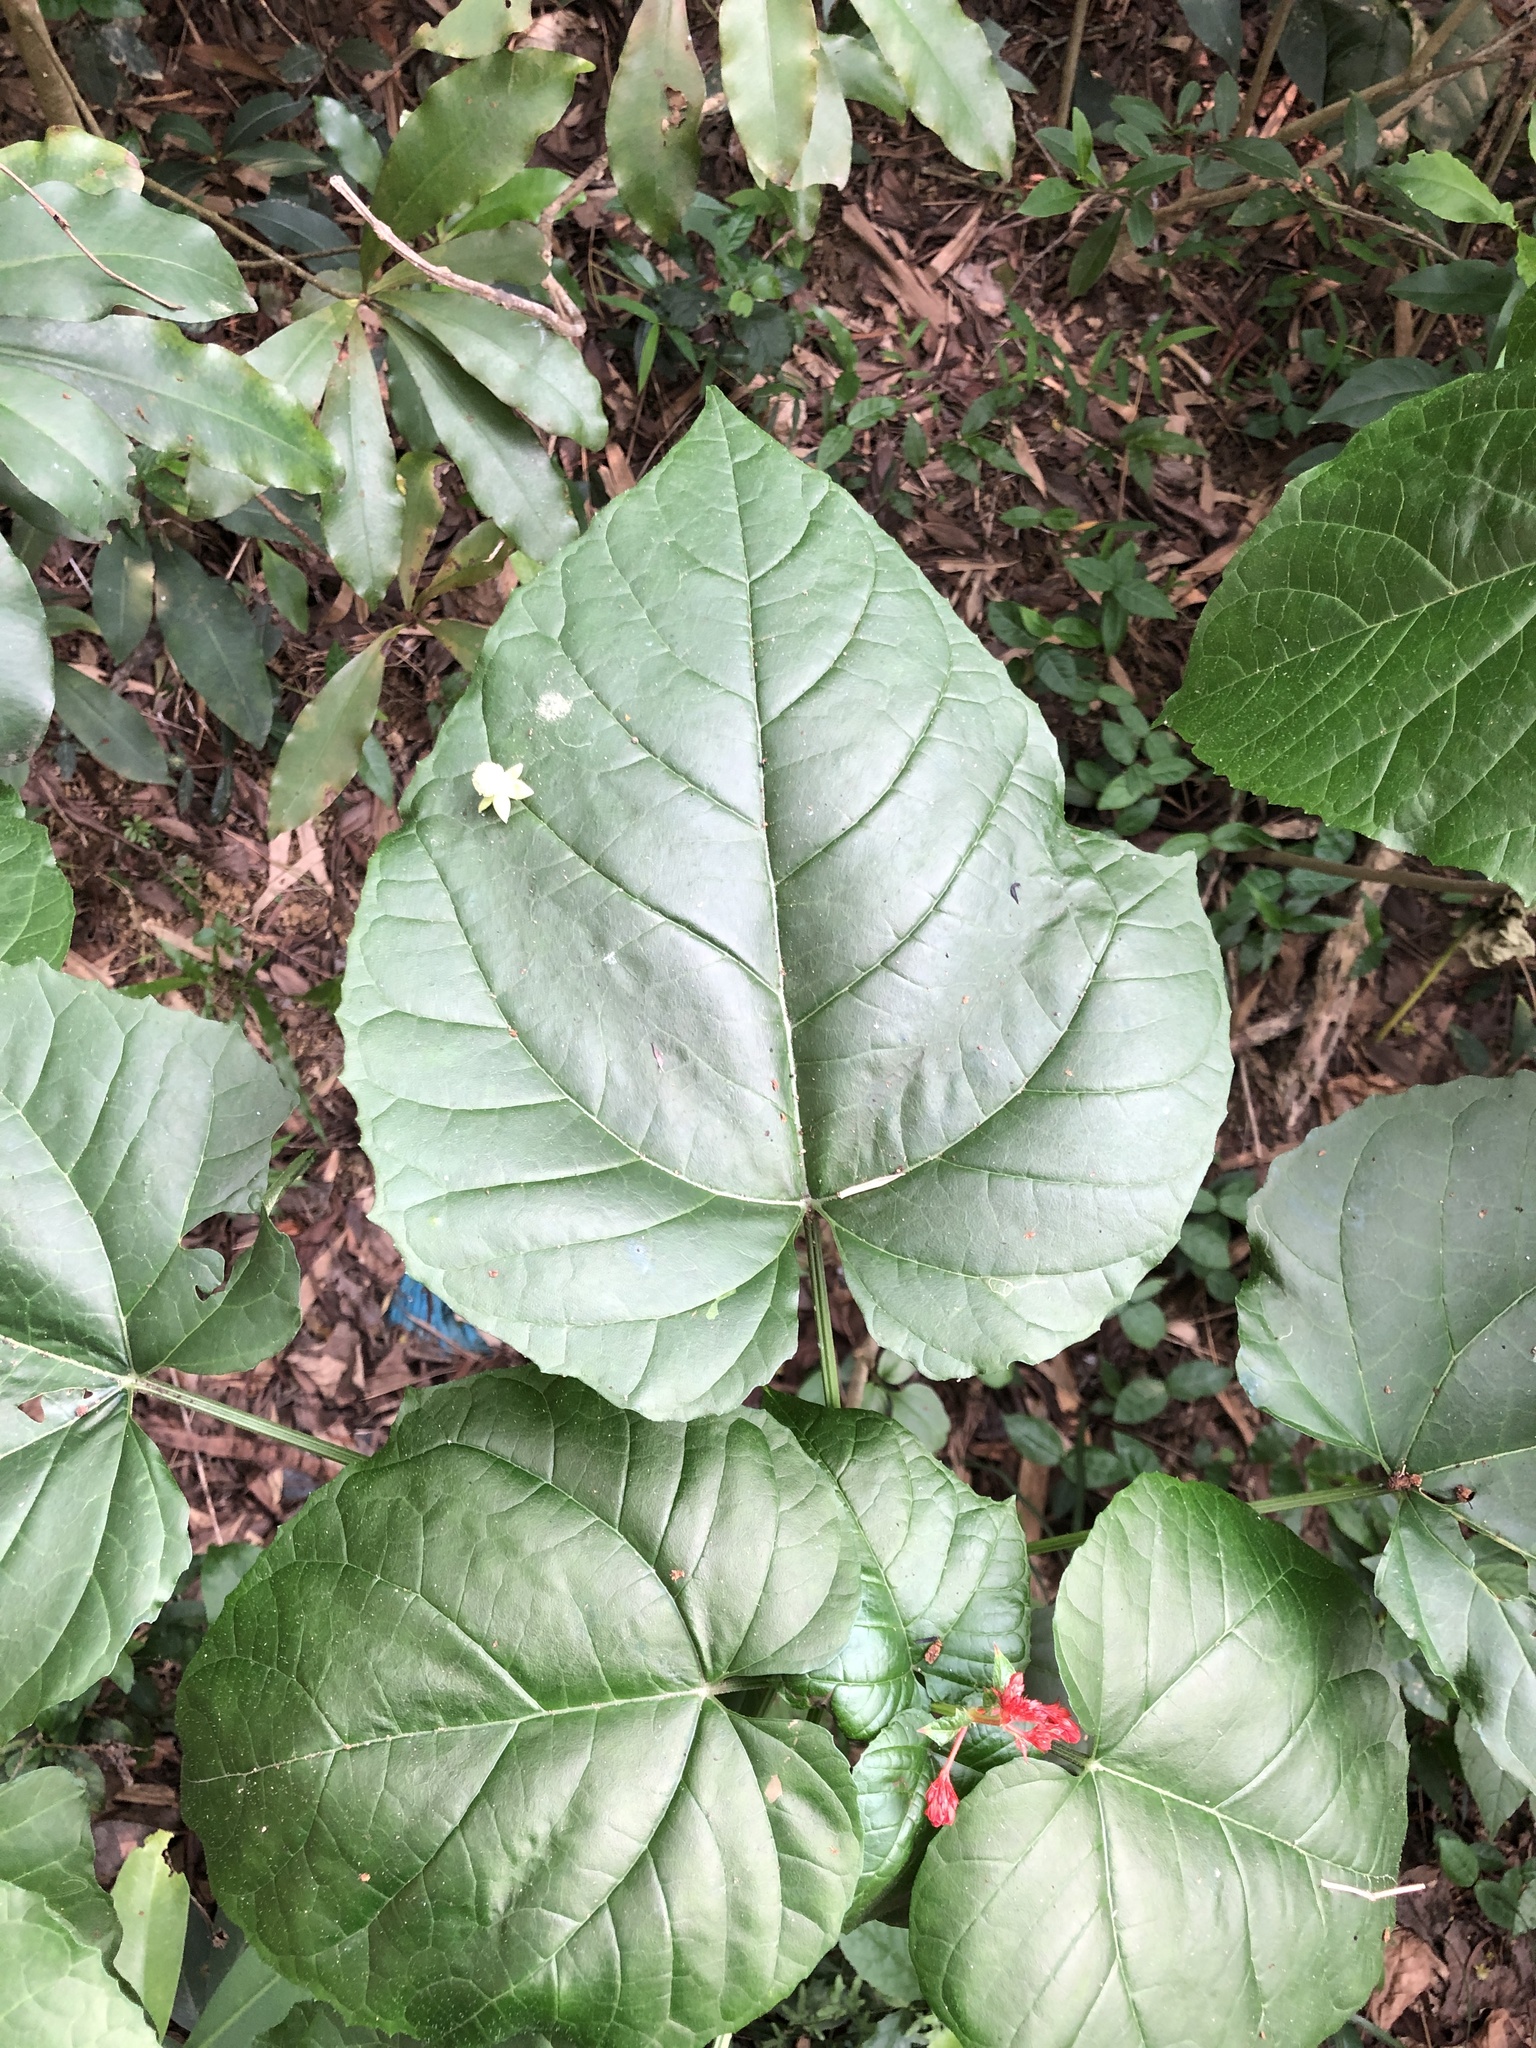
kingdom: Plantae
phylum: Tracheophyta
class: Magnoliopsida
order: Lamiales
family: Lamiaceae
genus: Clerodendrum
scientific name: Clerodendrum japonicum
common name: Japanese glorybower
